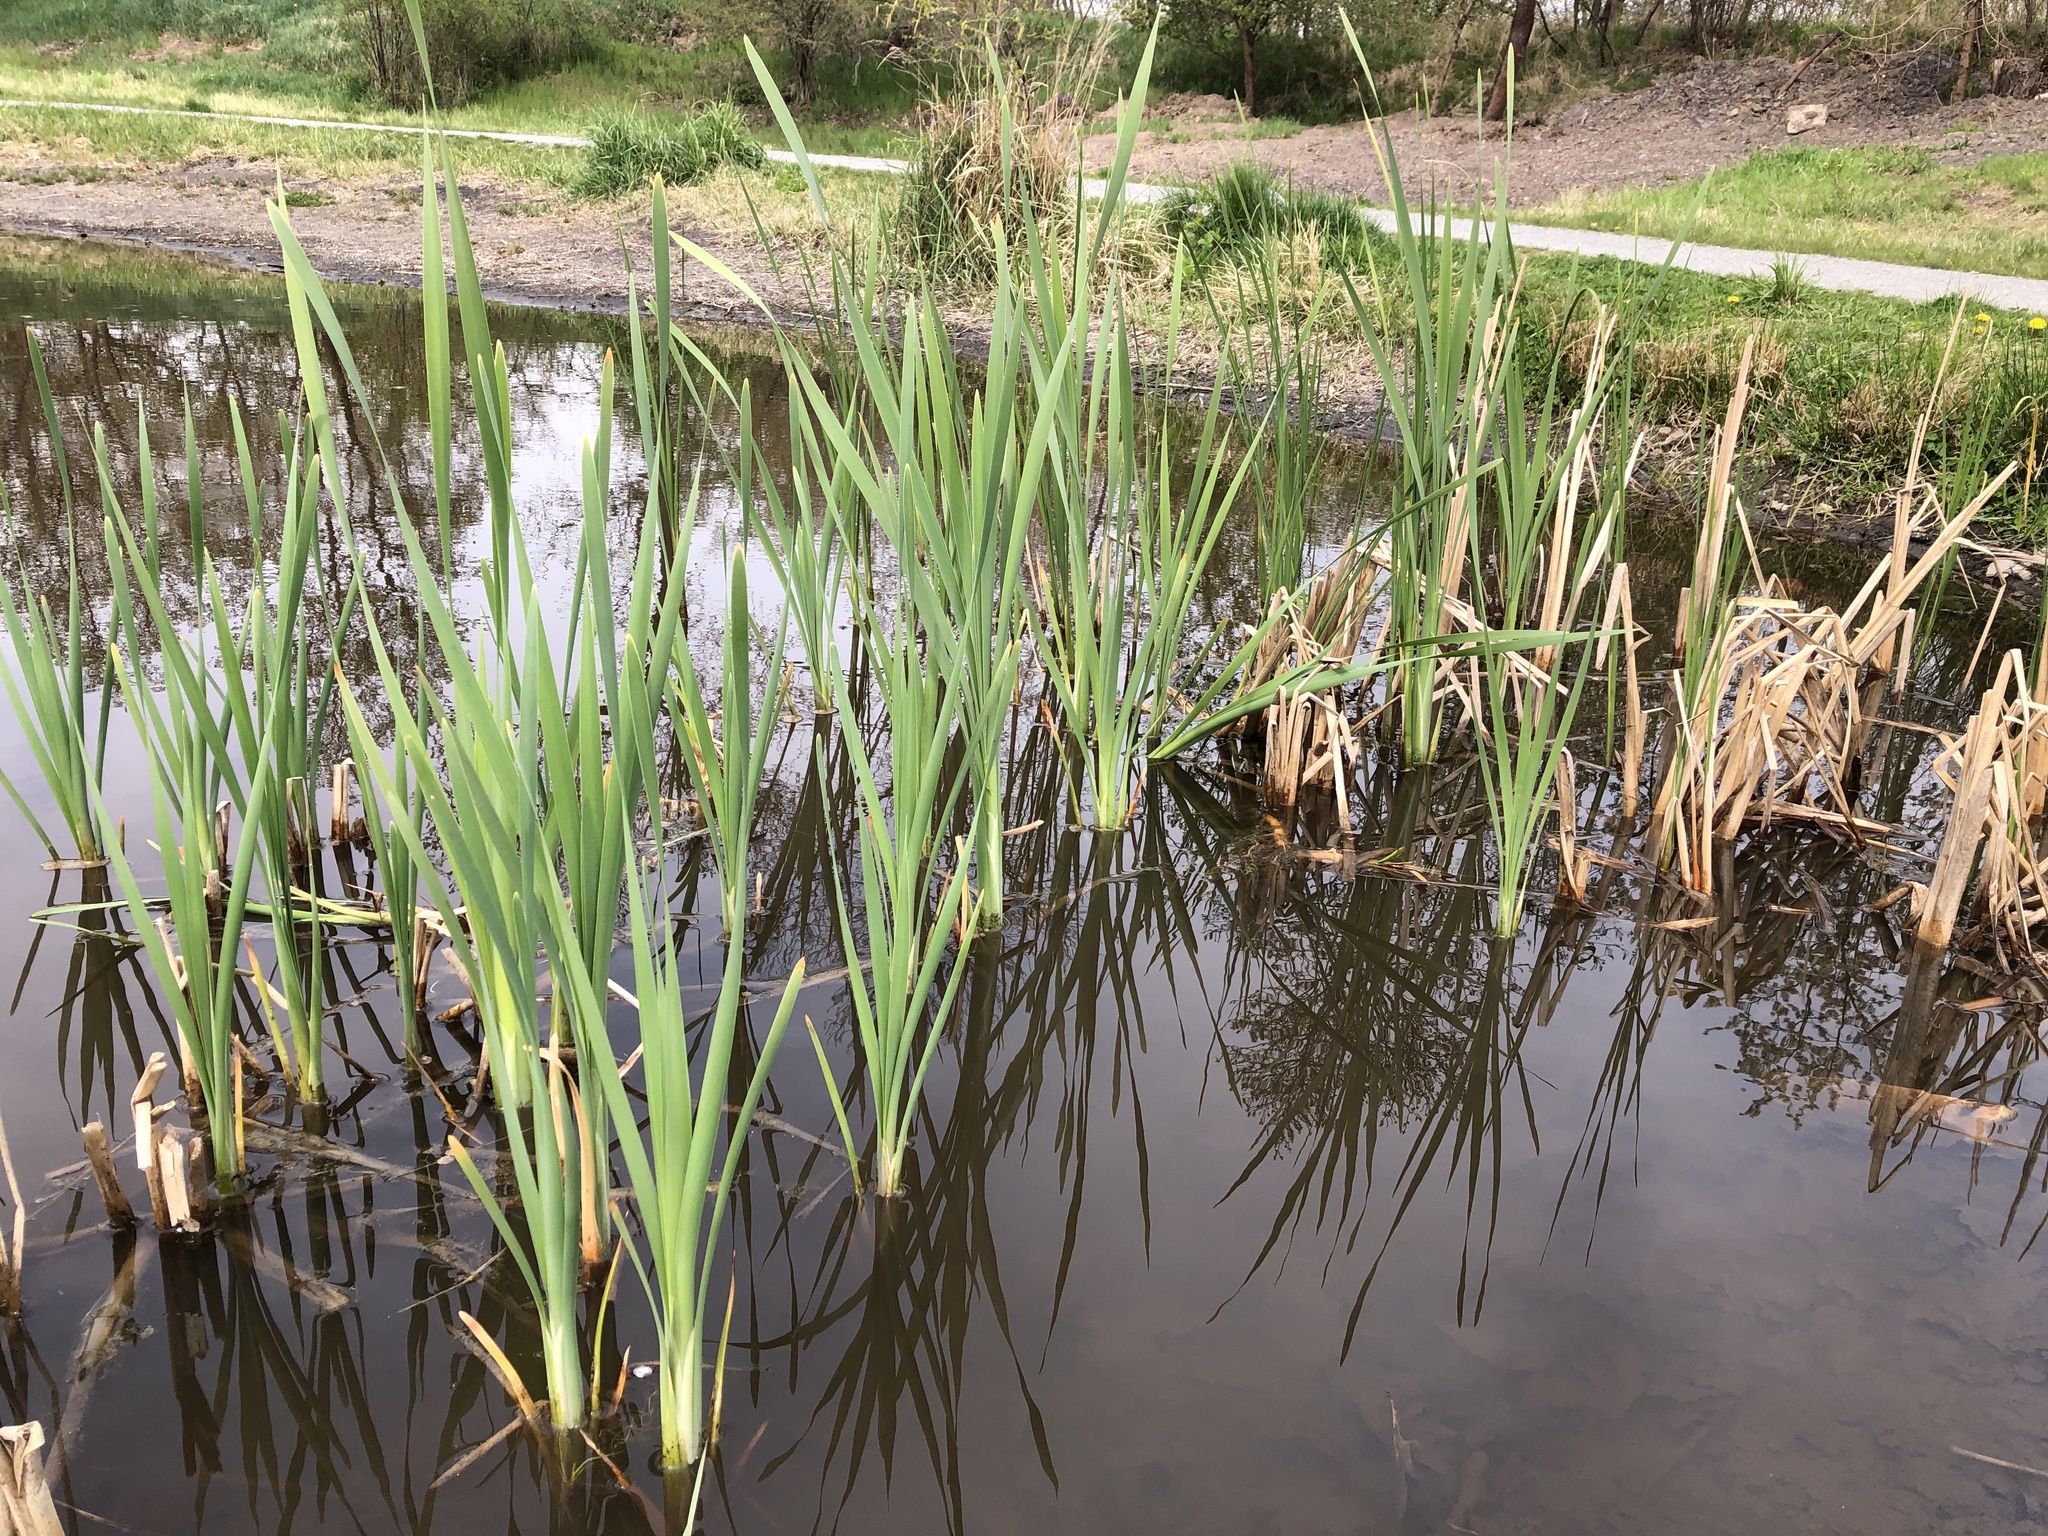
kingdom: Plantae
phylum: Tracheophyta
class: Liliopsida
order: Poales
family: Typhaceae
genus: Typha
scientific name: Typha latifolia
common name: Broadleaf cattail
